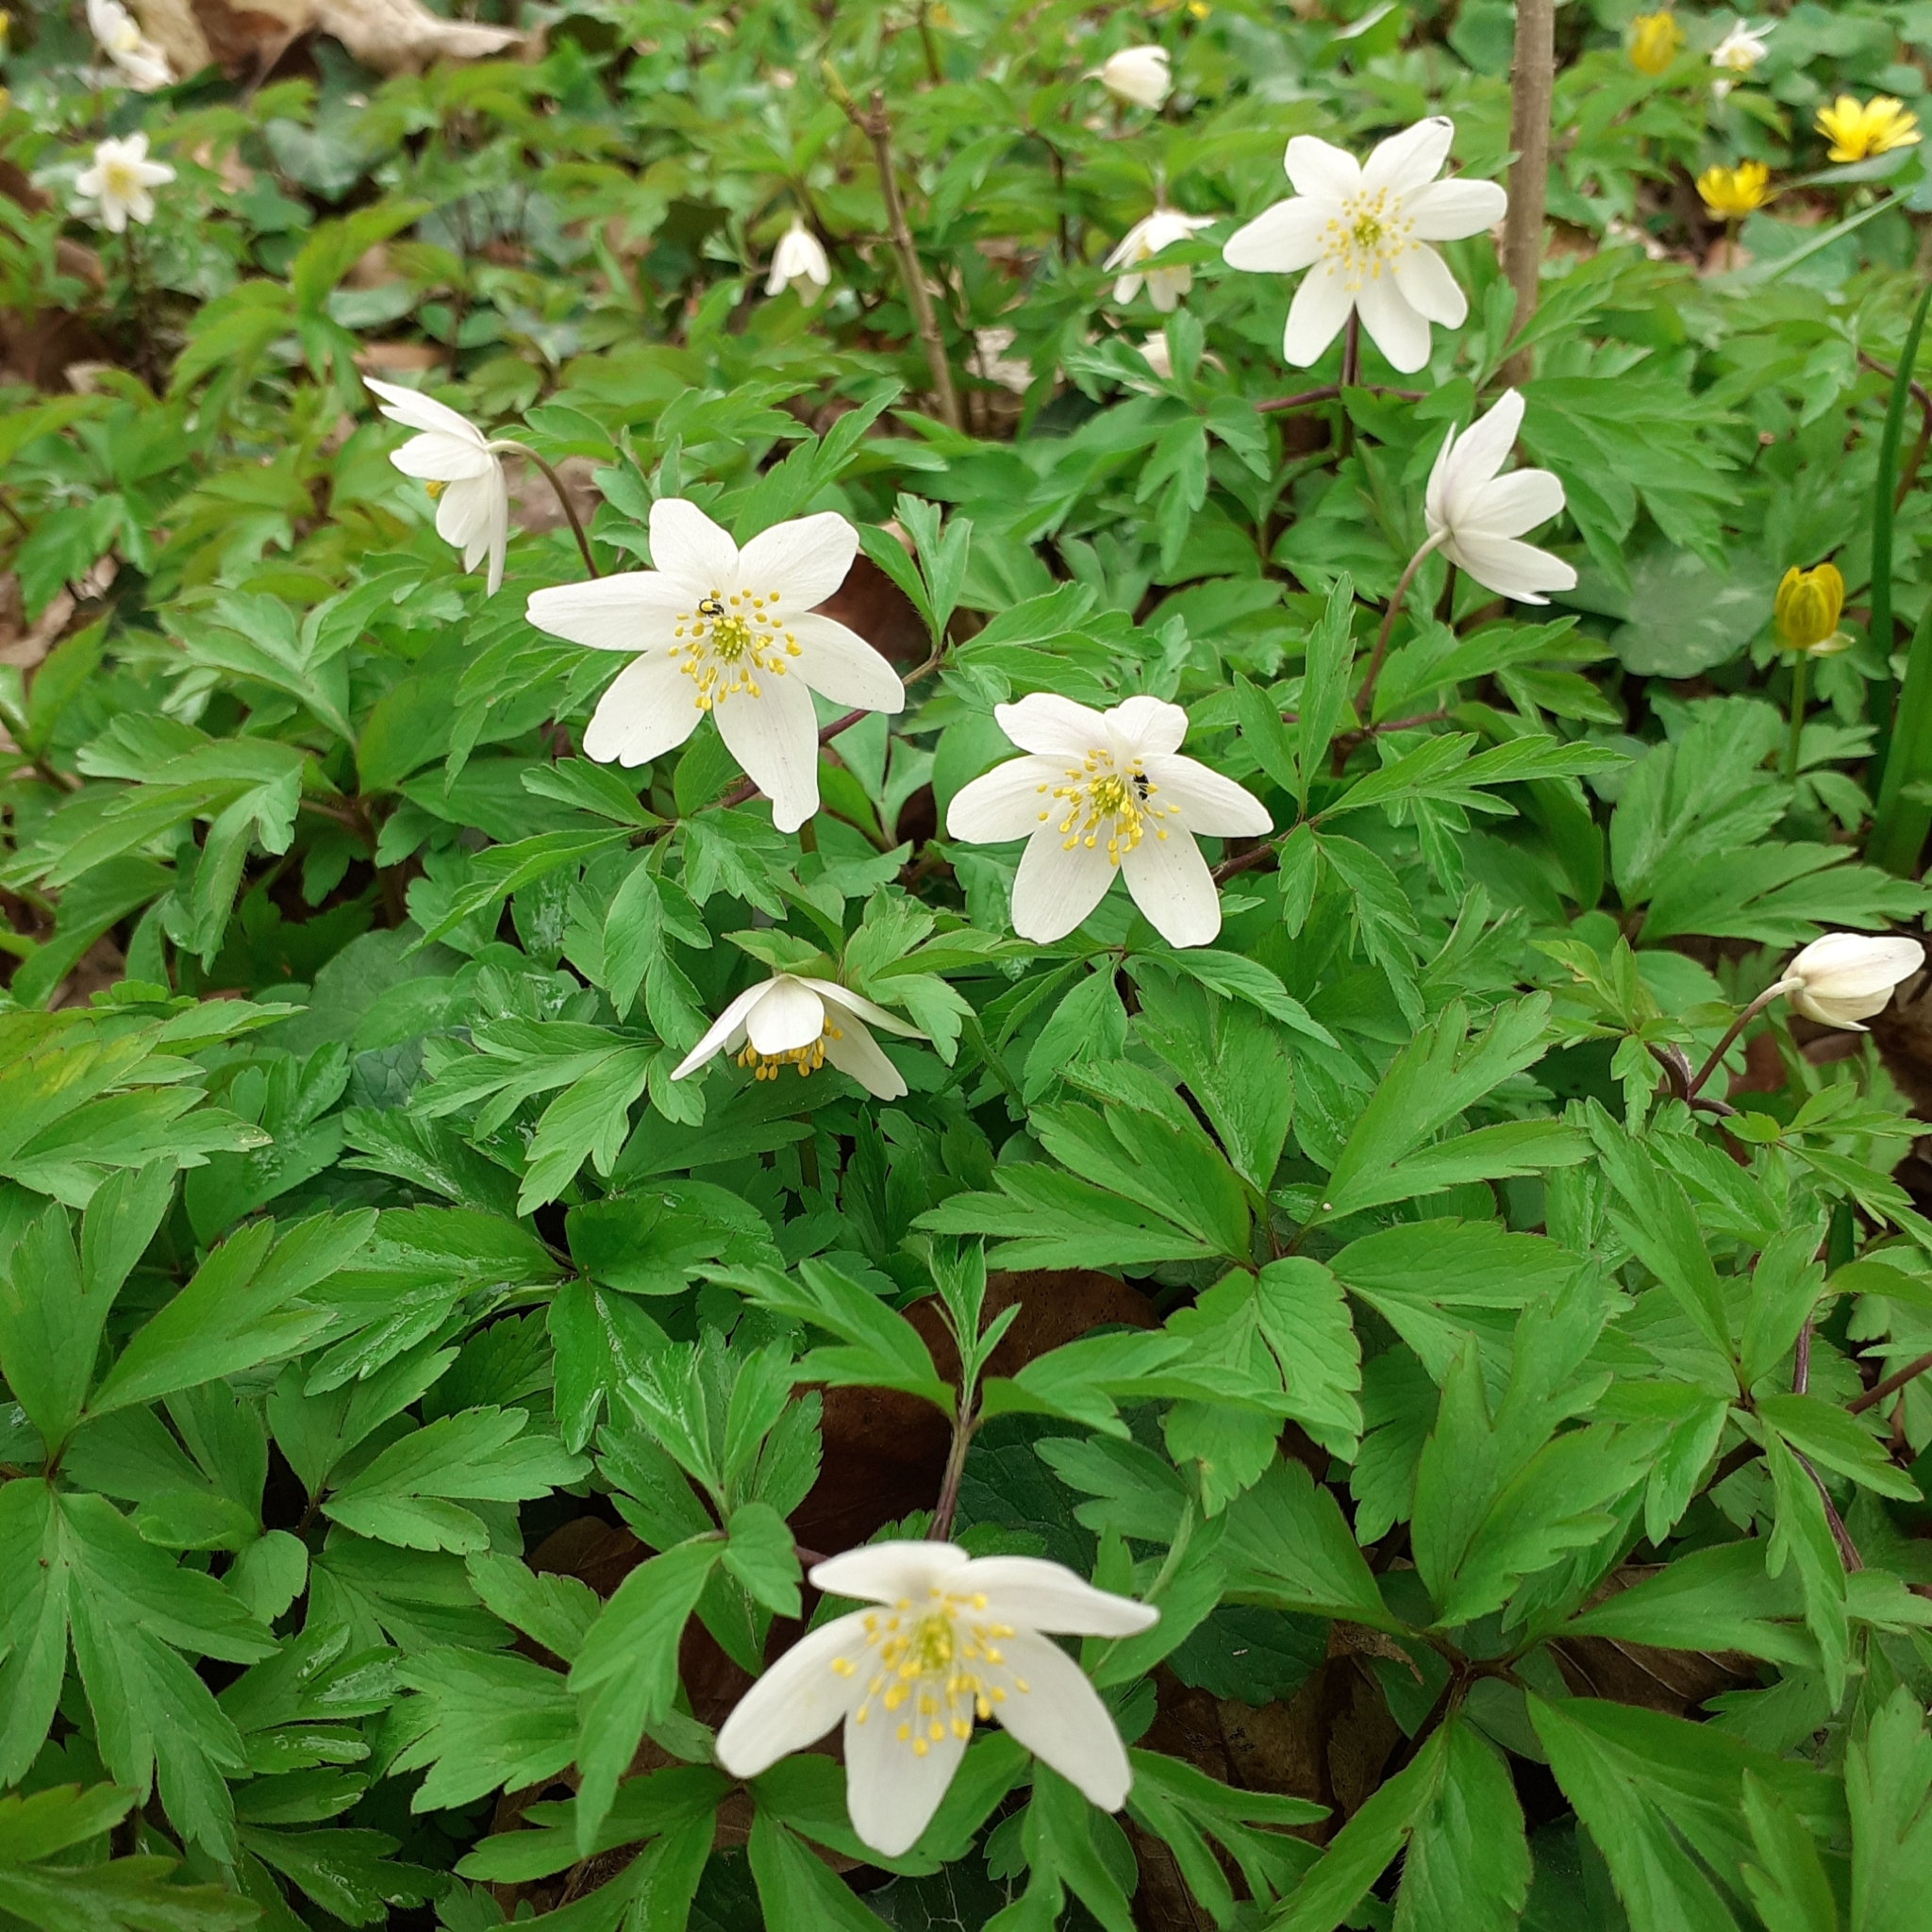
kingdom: Plantae
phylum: Tracheophyta
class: Magnoliopsida
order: Ranunculales
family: Ranunculaceae
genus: Anemone
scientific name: Anemone nemorosa
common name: Wood anemone
